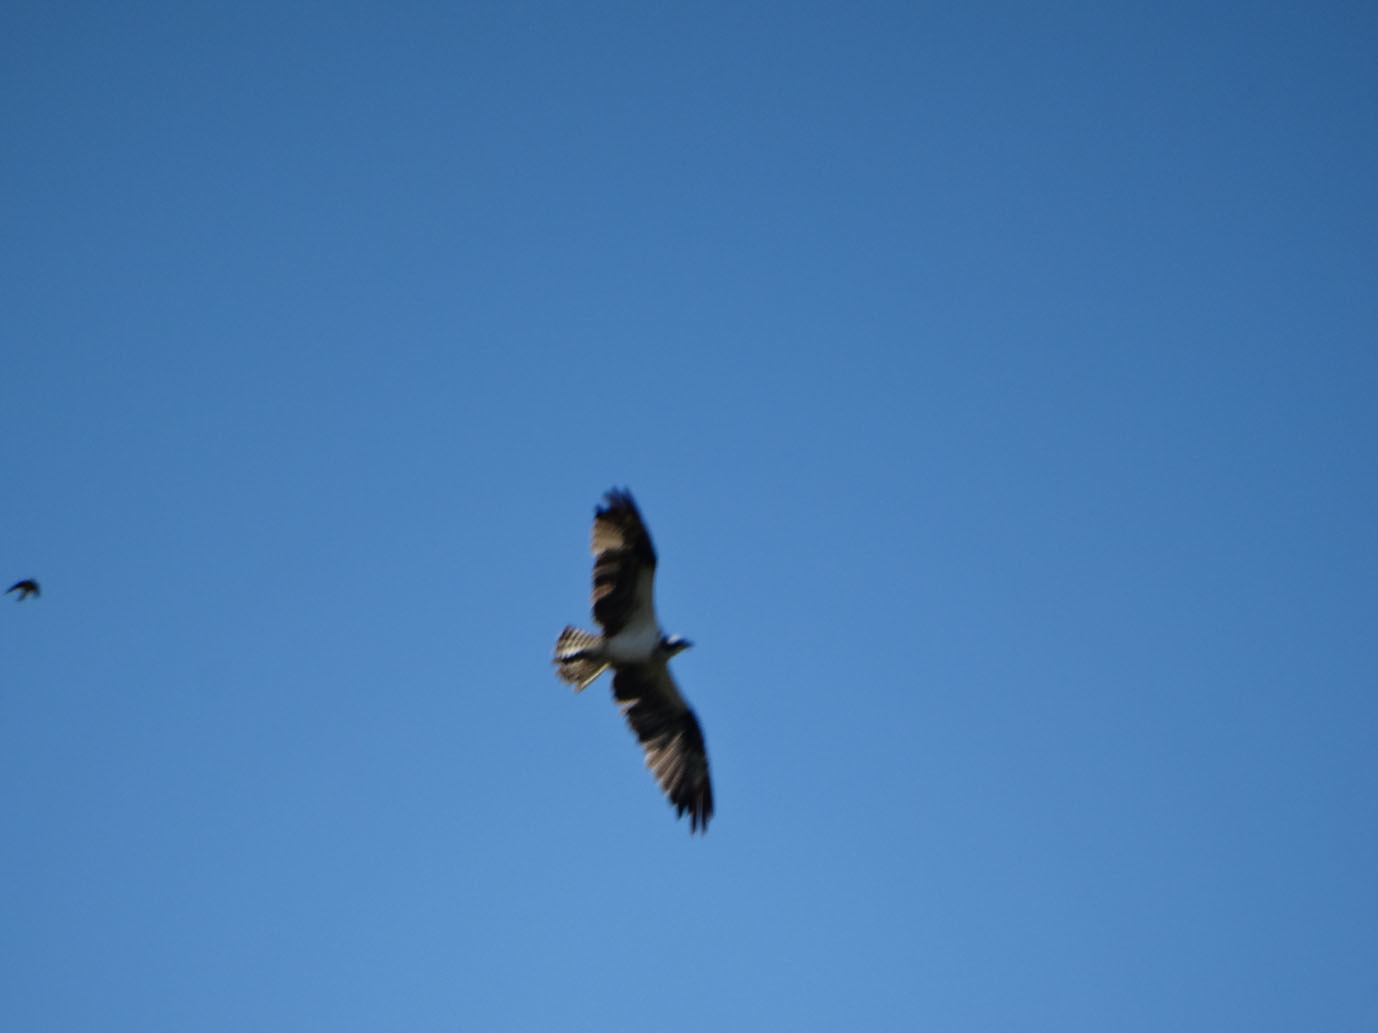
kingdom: Animalia
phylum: Chordata
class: Aves
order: Accipitriformes
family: Pandionidae
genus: Pandion
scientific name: Pandion haliaetus
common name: Osprey
